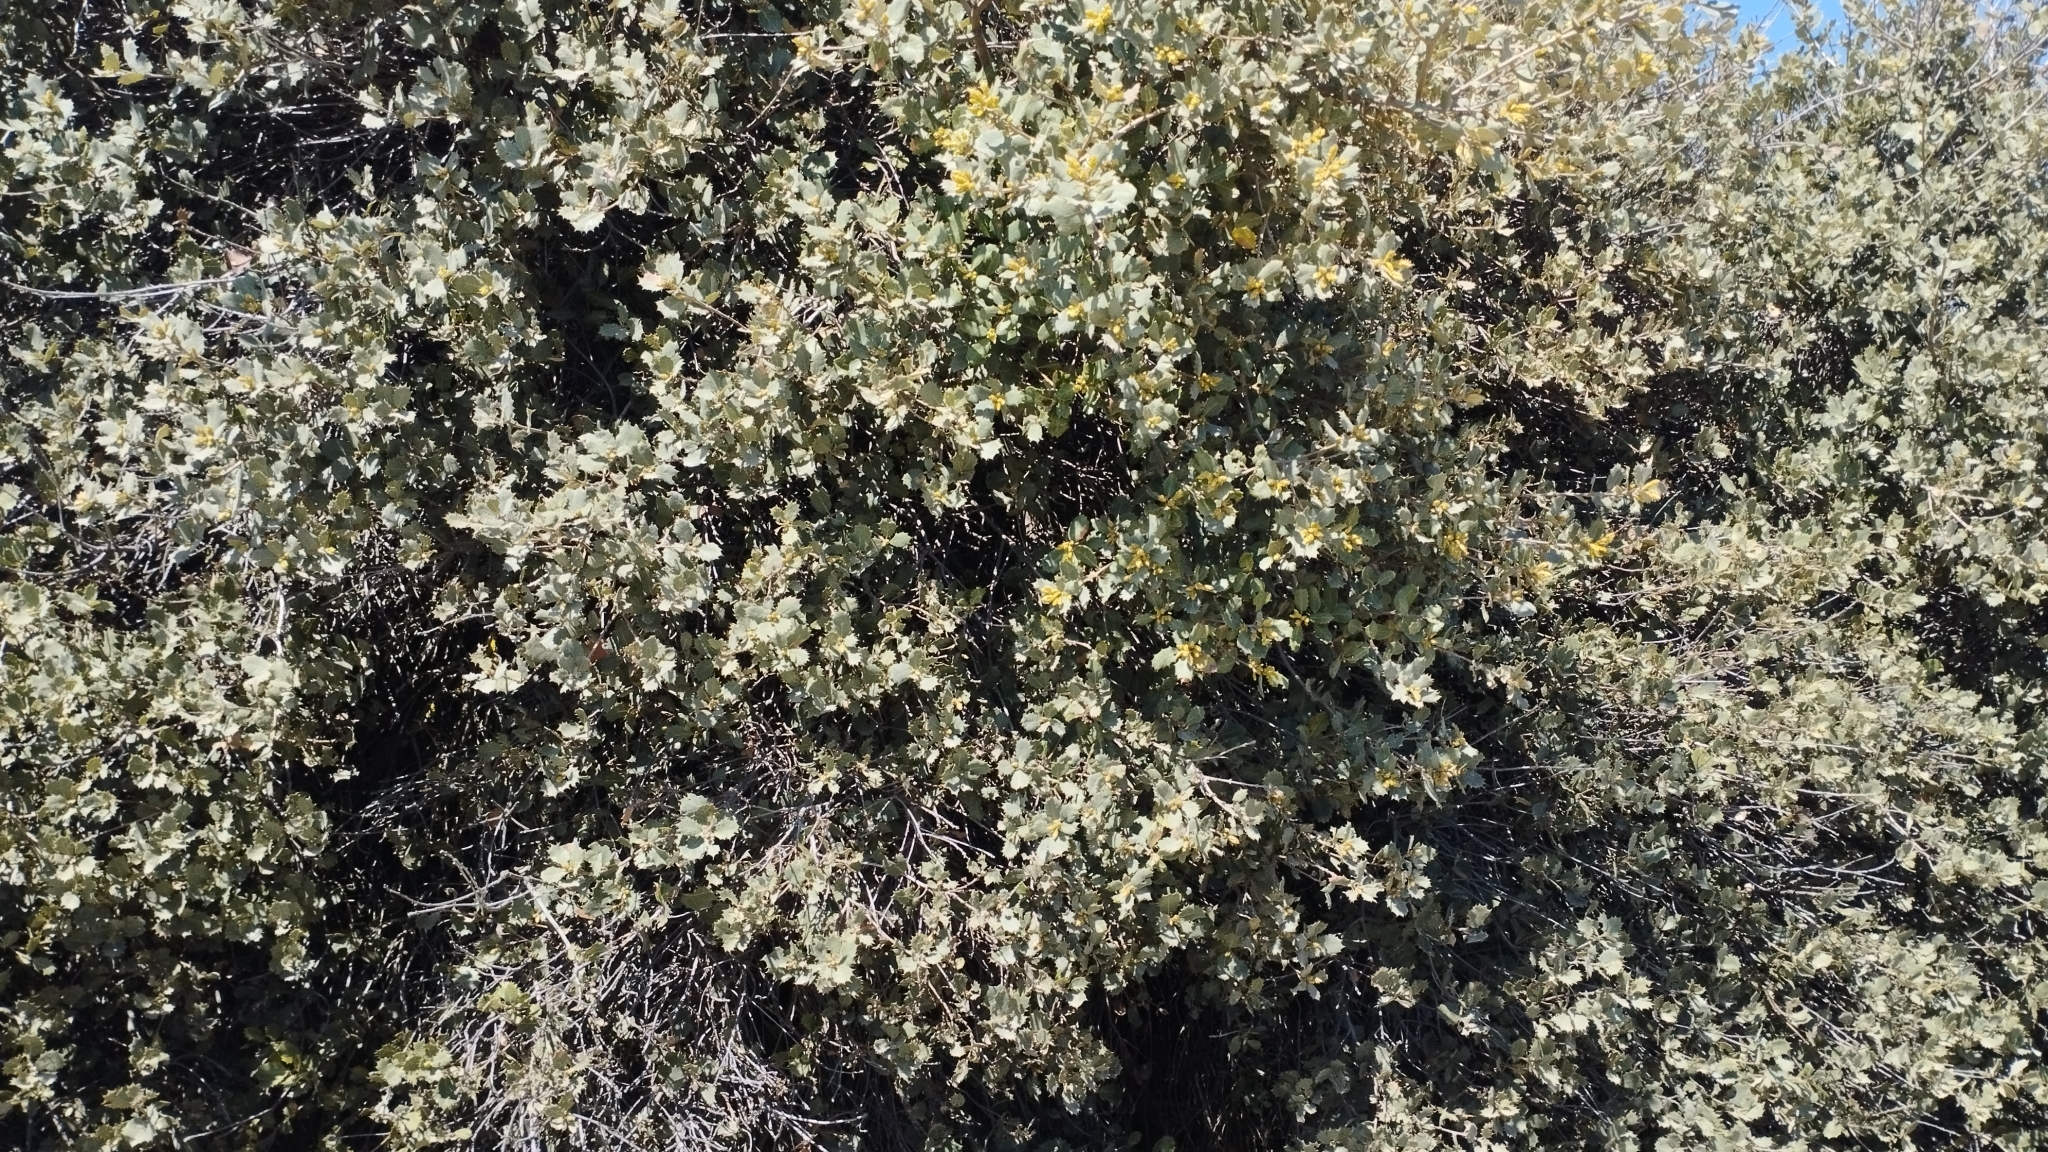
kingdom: Plantae
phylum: Tracheophyta
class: Magnoliopsida
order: Fagales
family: Fagaceae
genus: Quercus
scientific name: Quercus rotundifolia
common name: Holm oak
